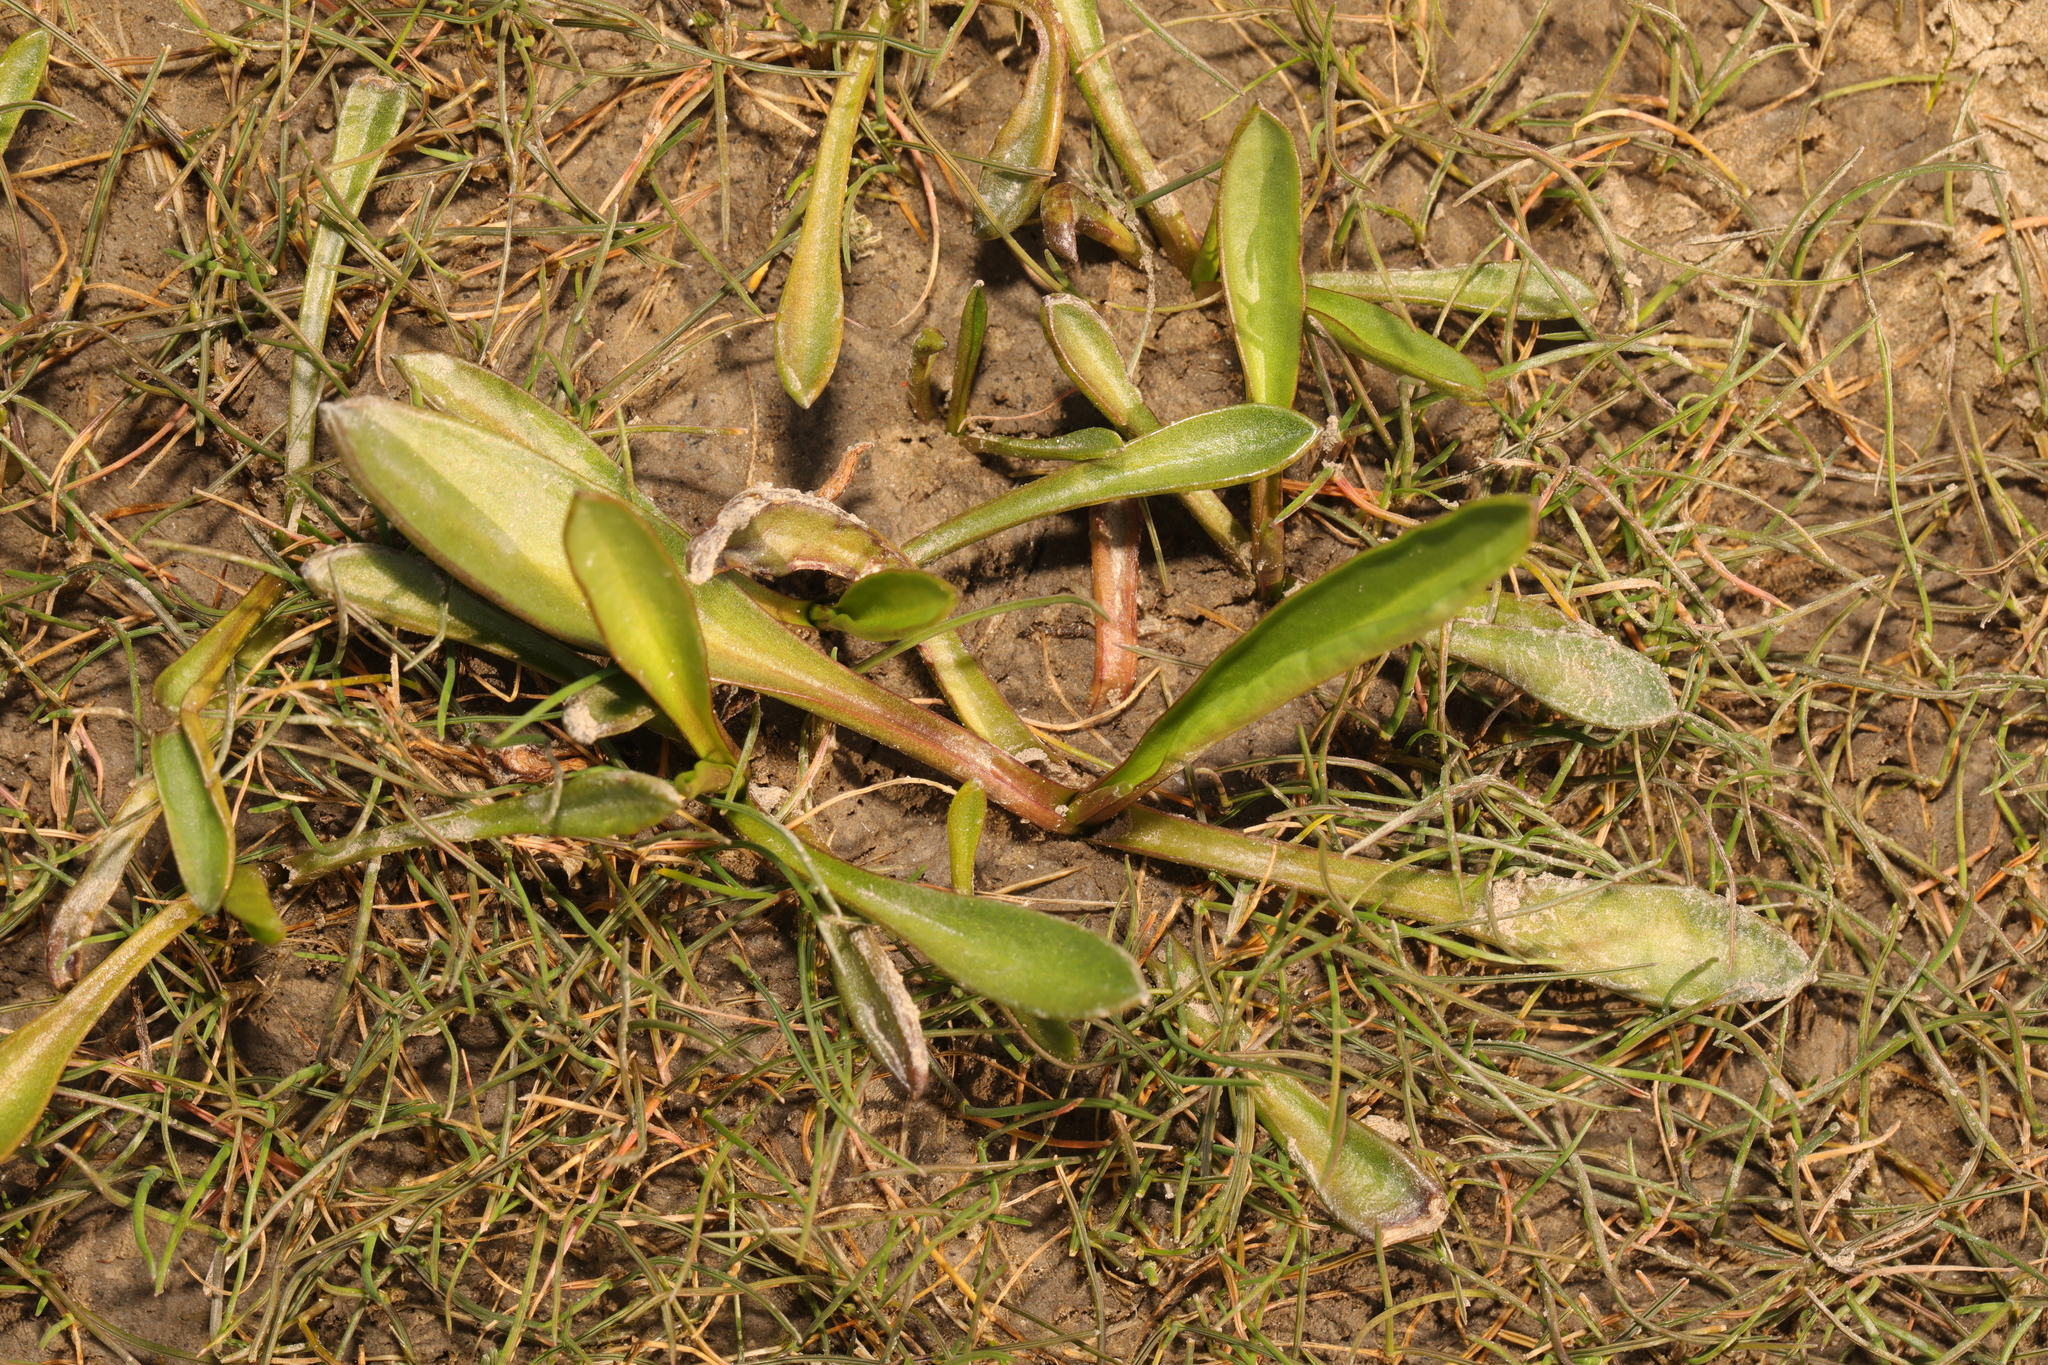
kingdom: Plantae
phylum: Tracheophyta
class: Magnoliopsida
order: Asterales
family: Asteraceae
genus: Tripolium
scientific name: Tripolium pannonicum
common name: Sea aster
